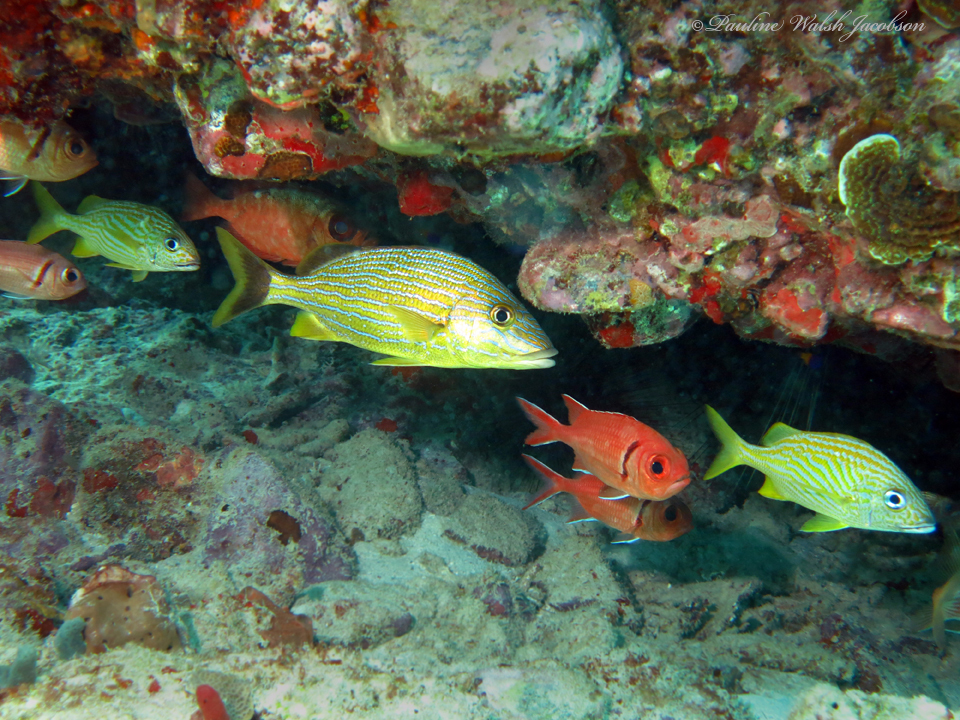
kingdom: Animalia
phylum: Chordata
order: Beryciformes
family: Holocentridae
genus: Myripristis
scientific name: Myripristis jacobus
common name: Blackbar soldierfish
